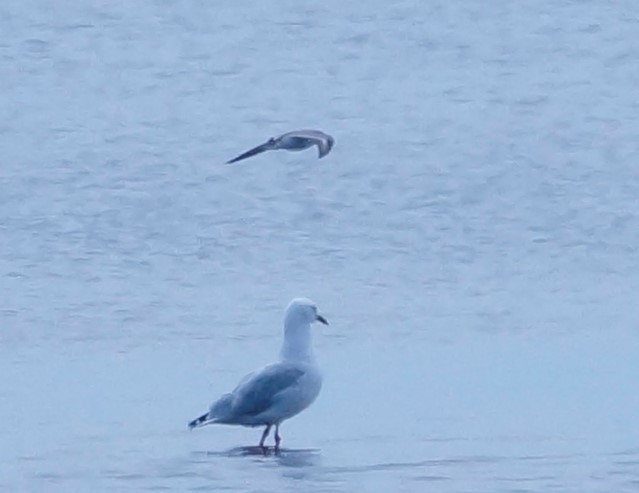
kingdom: Animalia
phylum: Chordata
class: Aves
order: Charadriiformes
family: Laridae
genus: Chroicocephalus
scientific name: Chroicocephalus novaehollandiae
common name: Silver gull
